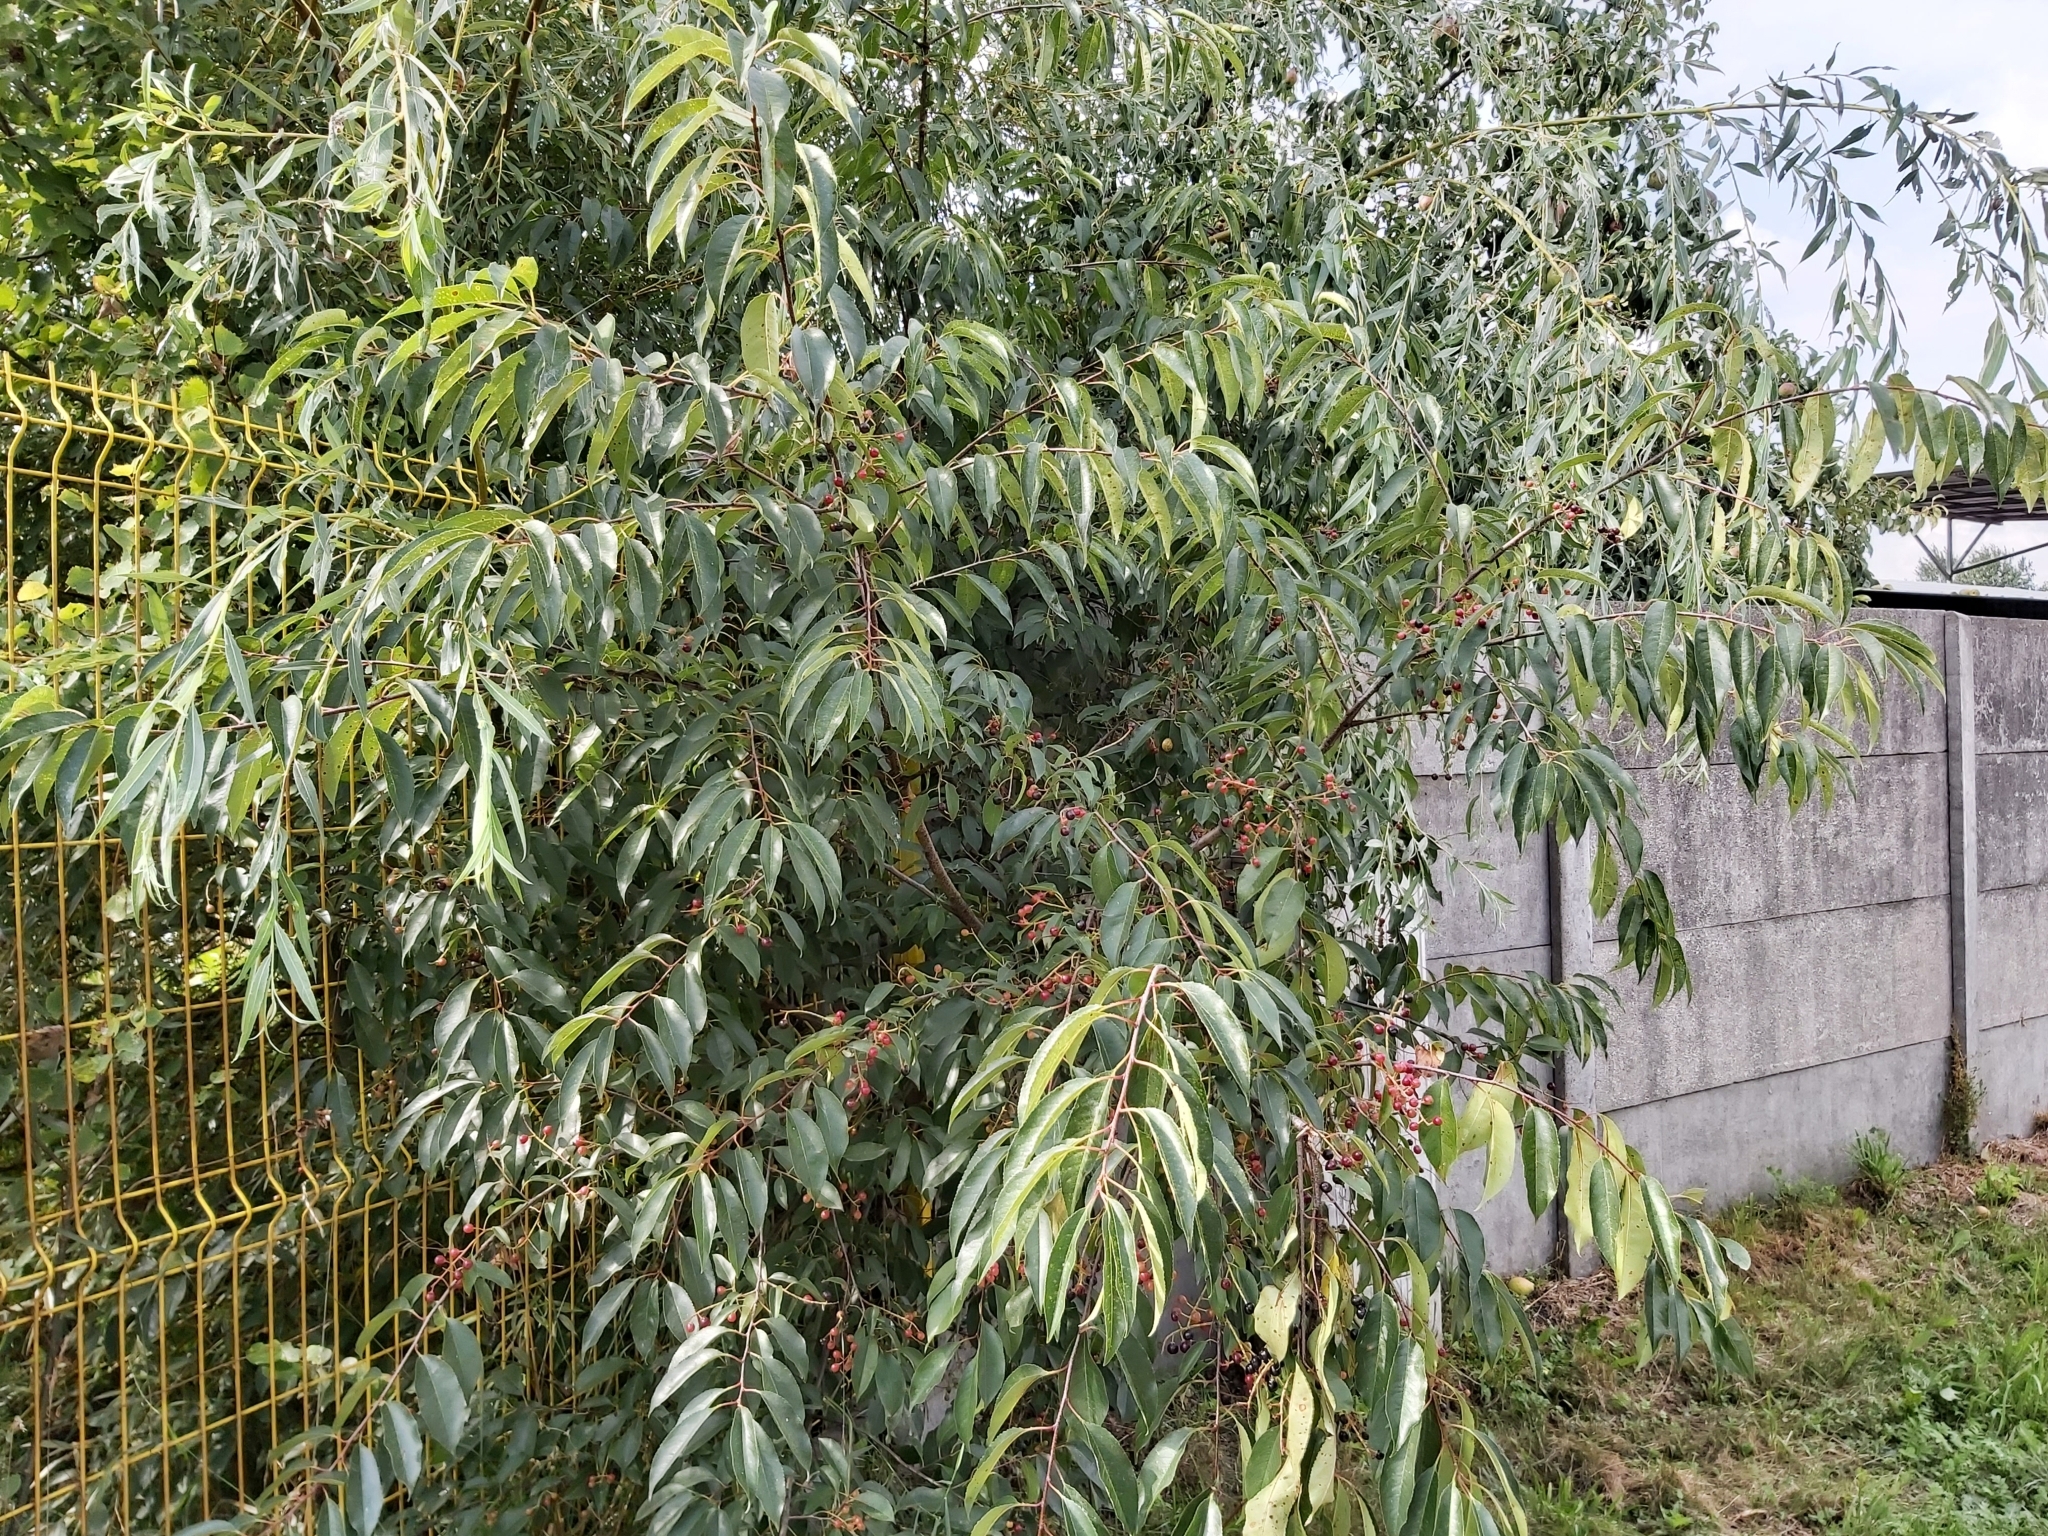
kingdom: Plantae
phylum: Tracheophyta
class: Magnoliopsida
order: Rosales
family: Rosaceae
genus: Prunus
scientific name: Prunus serotina
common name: Black cherry
